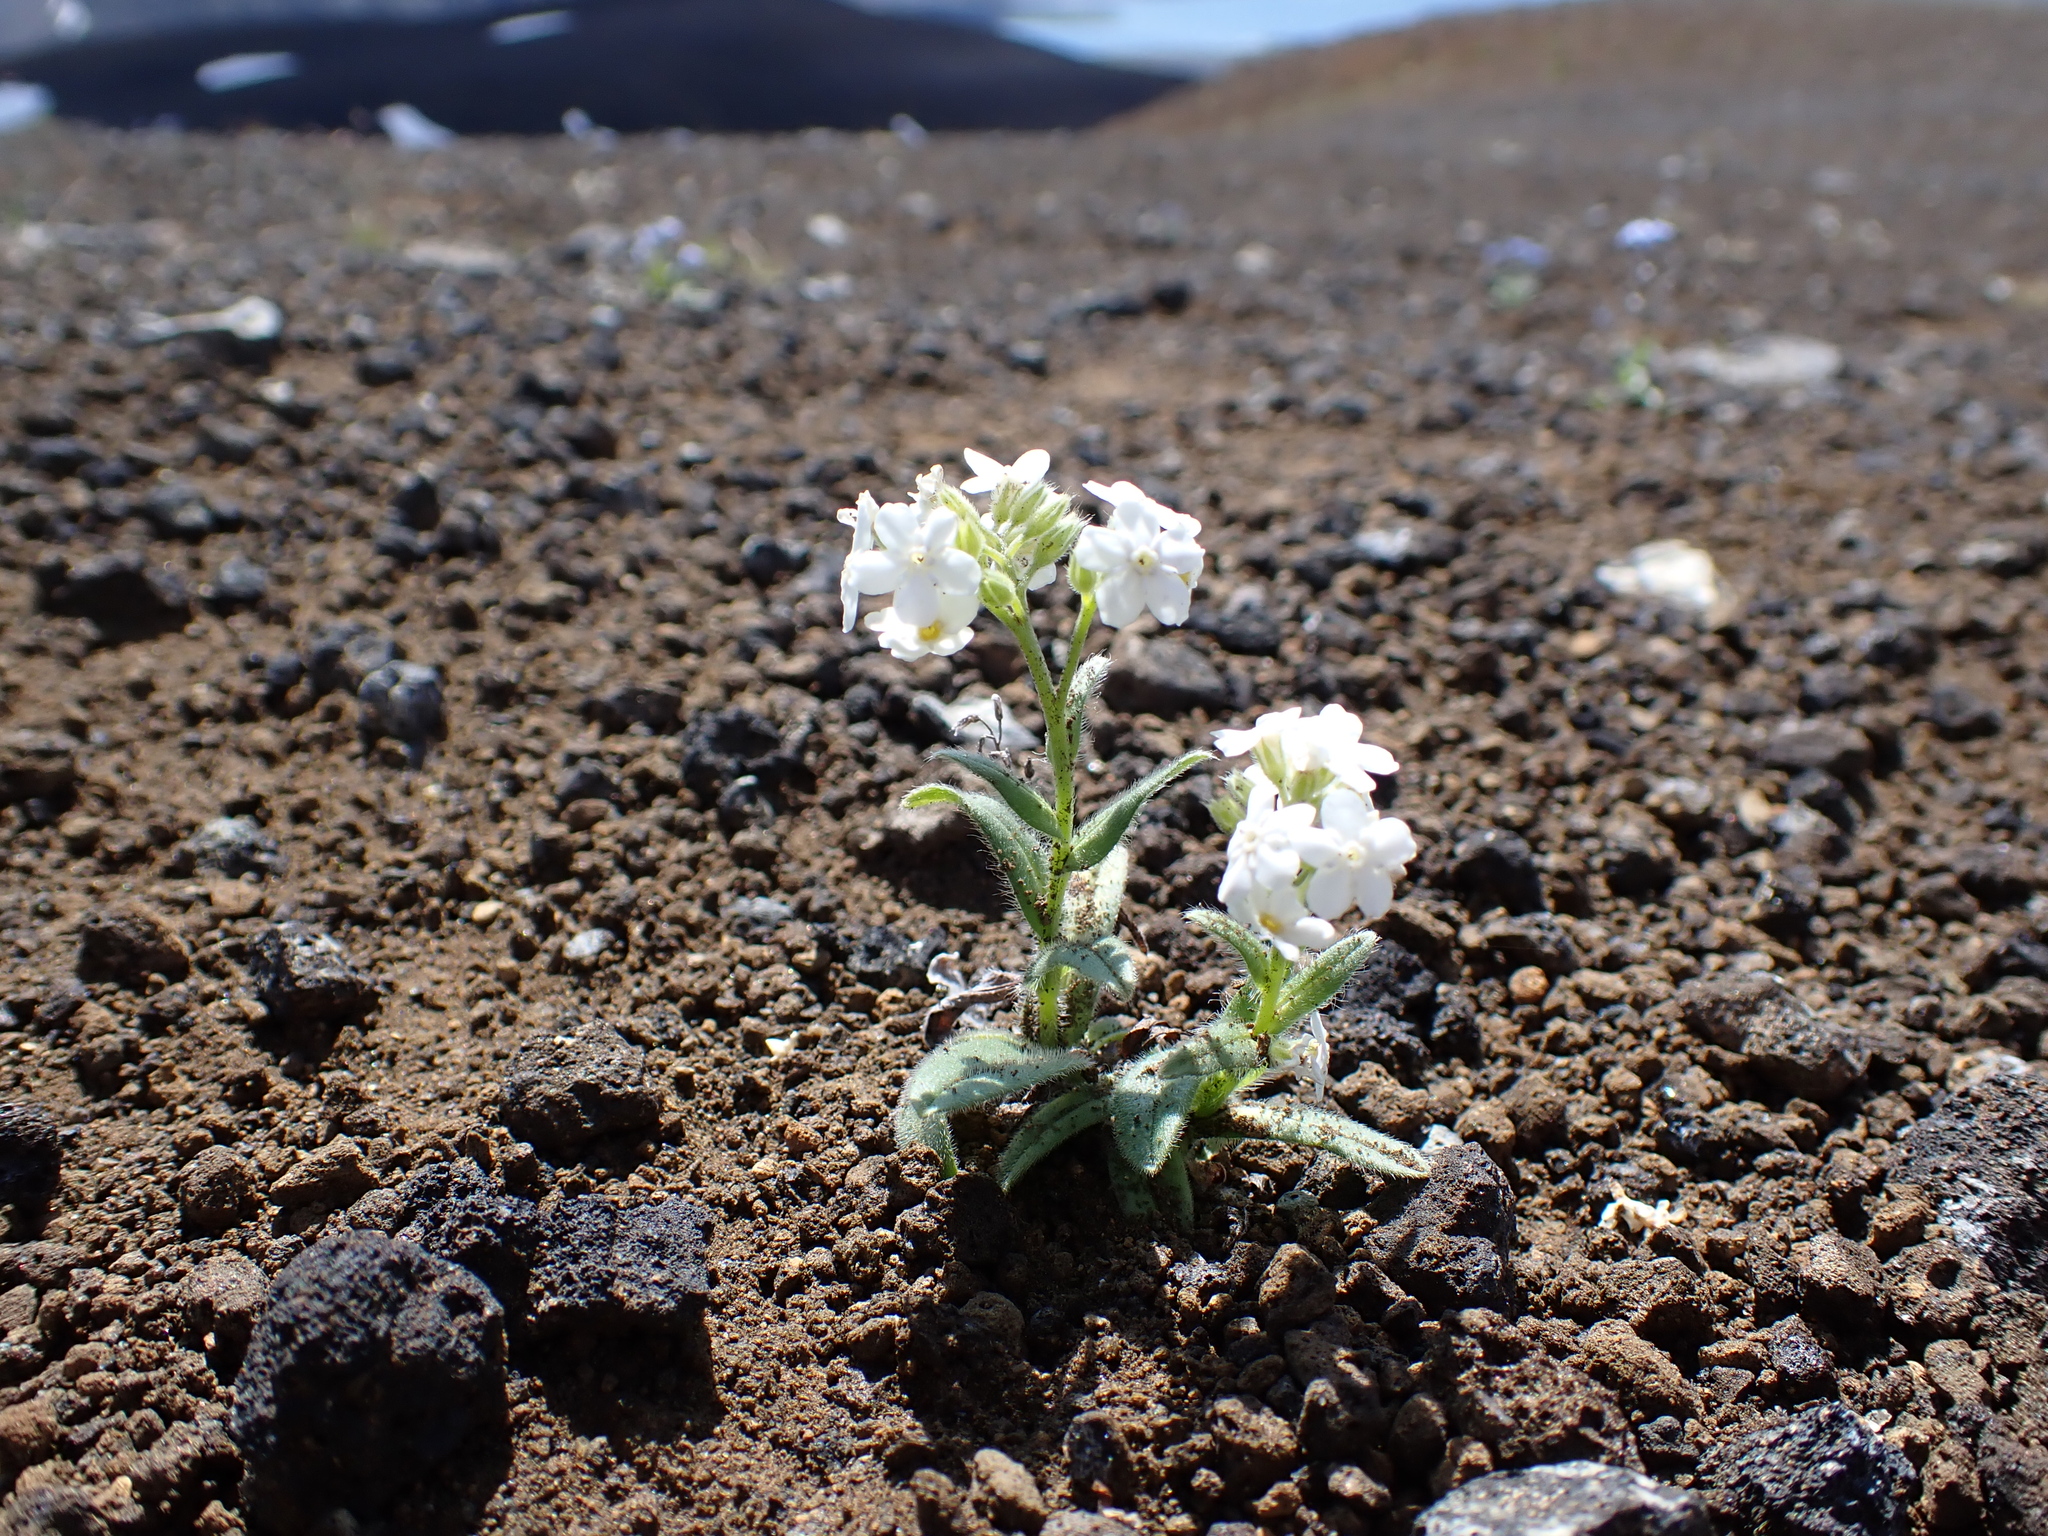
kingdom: Plantae
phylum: Tracheophyta
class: Magnoliopsida
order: Boraginales
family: Boraginaceae
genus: Myosotis
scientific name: Myosotis asiatica
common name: Asian forget-me-not
